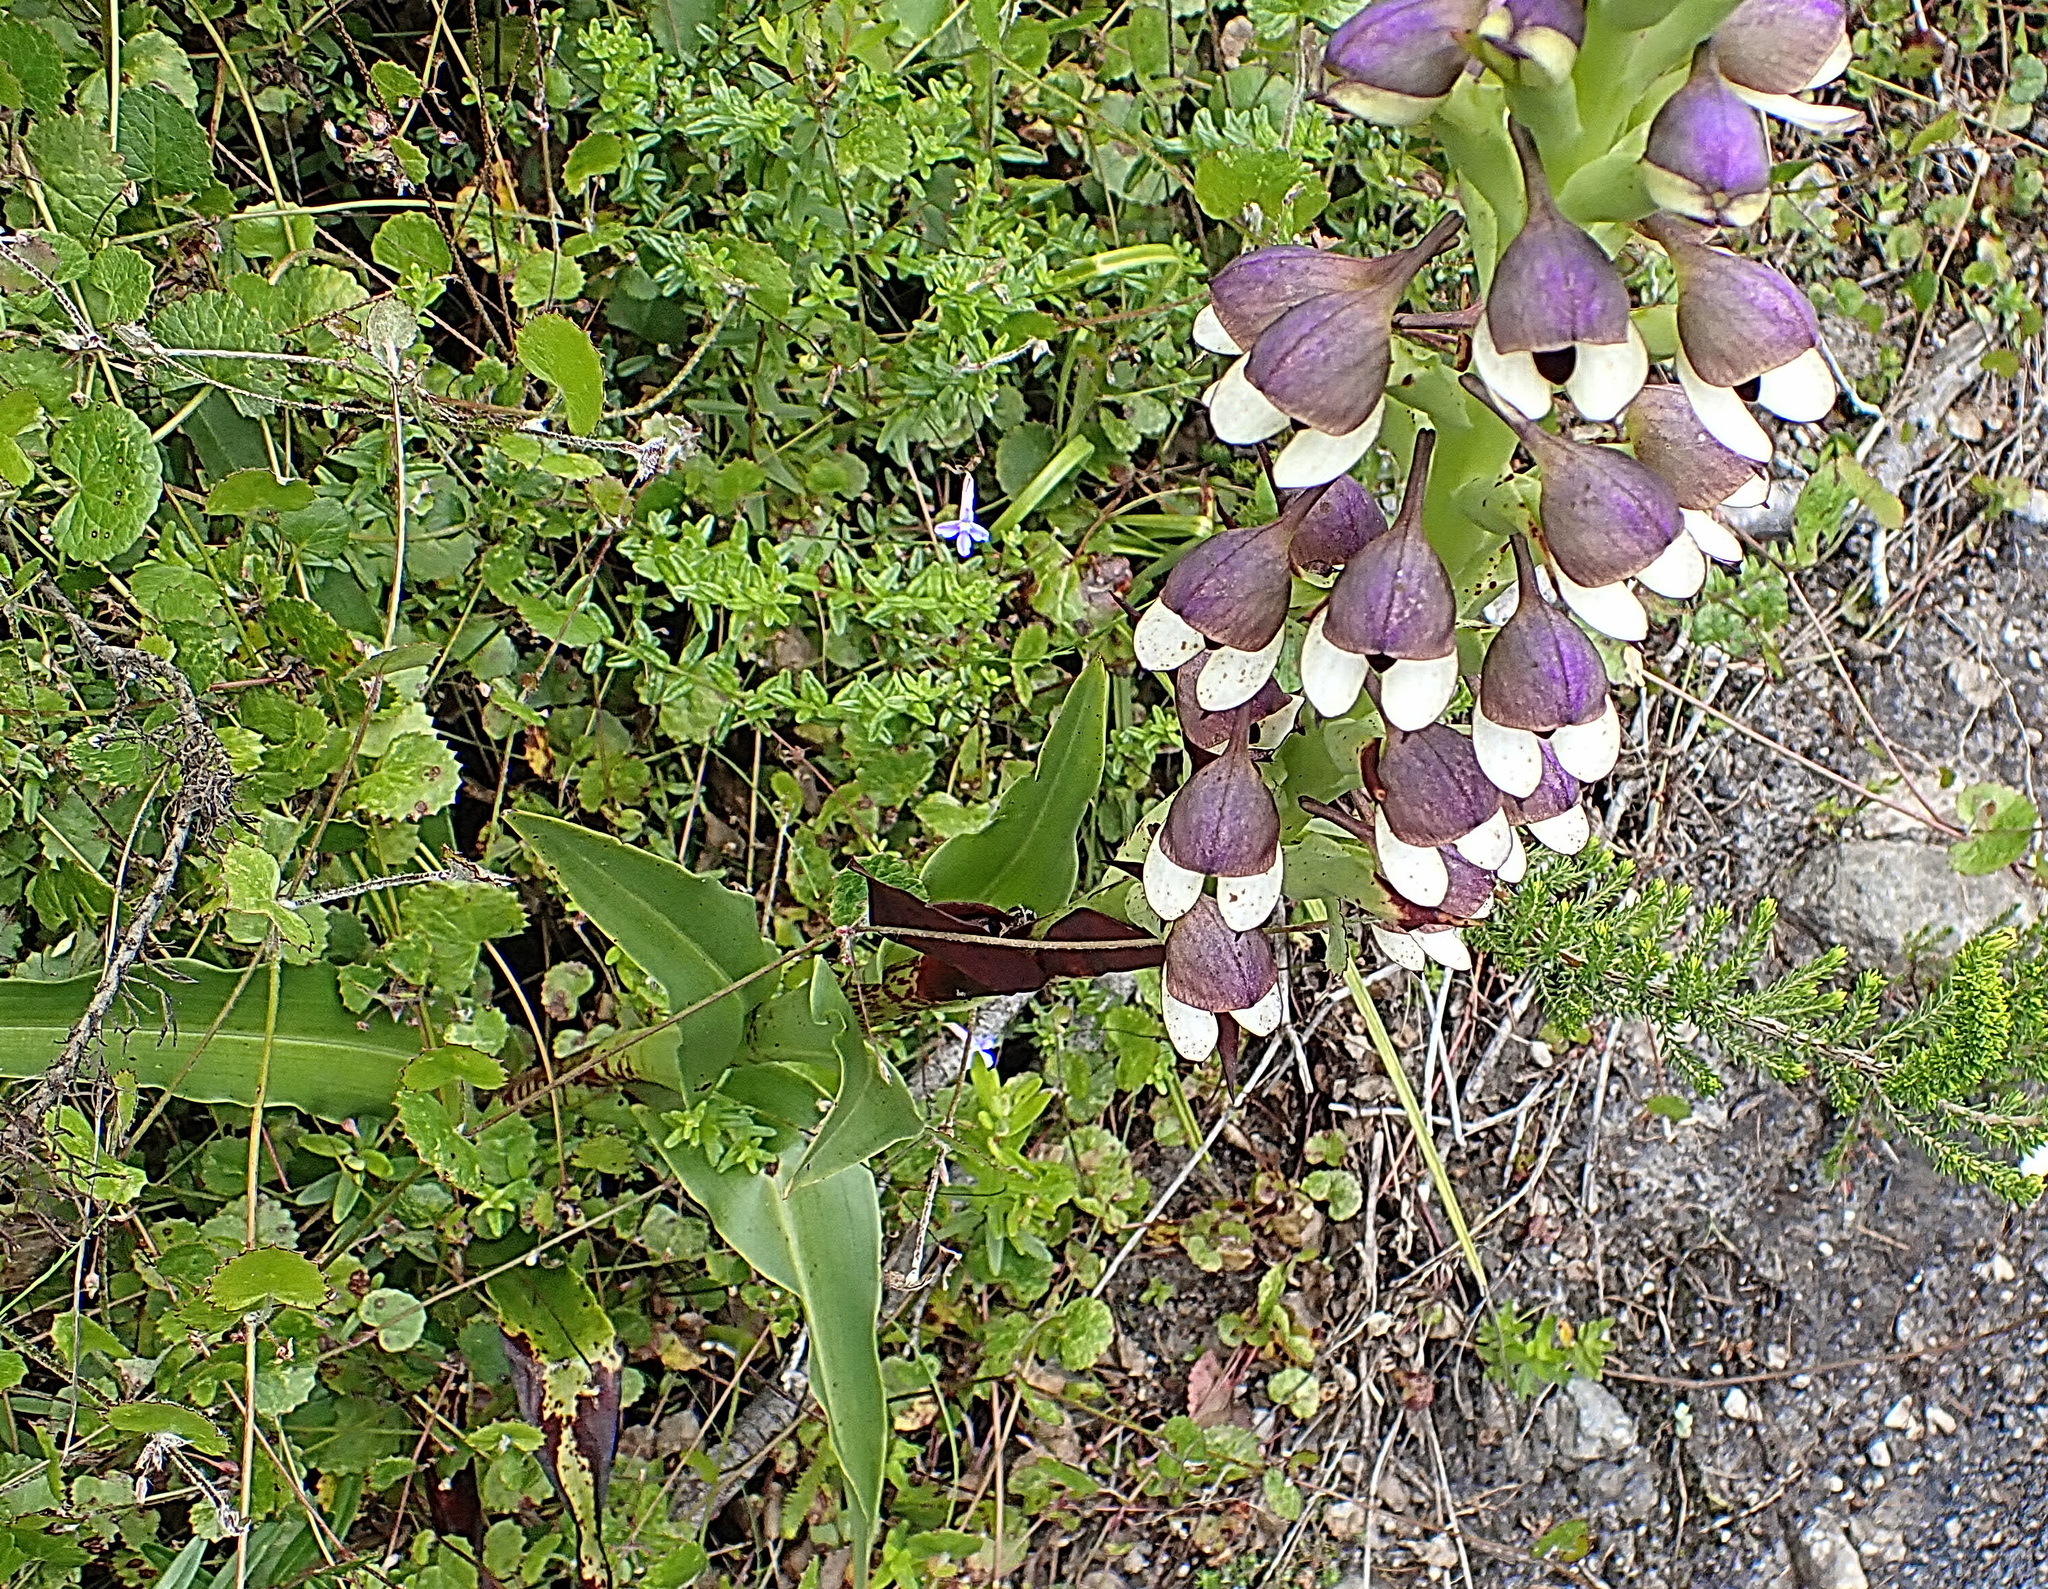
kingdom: Plantae
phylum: Tracheophyta
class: Liliopsida
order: Asparagales
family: Orchidaceae
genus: Disa
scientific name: Disa cornuta
